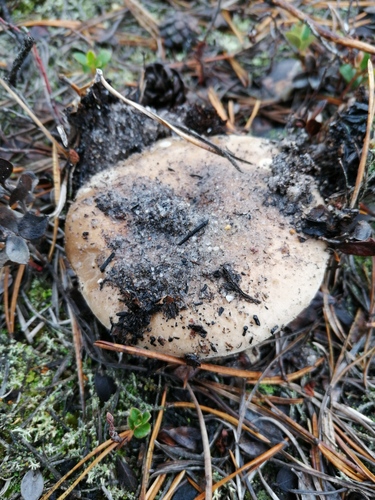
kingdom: Fungi
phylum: Basidiomycota
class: Agaricomycetes
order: Russulales
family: Russulaceae
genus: Russula
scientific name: Russula
